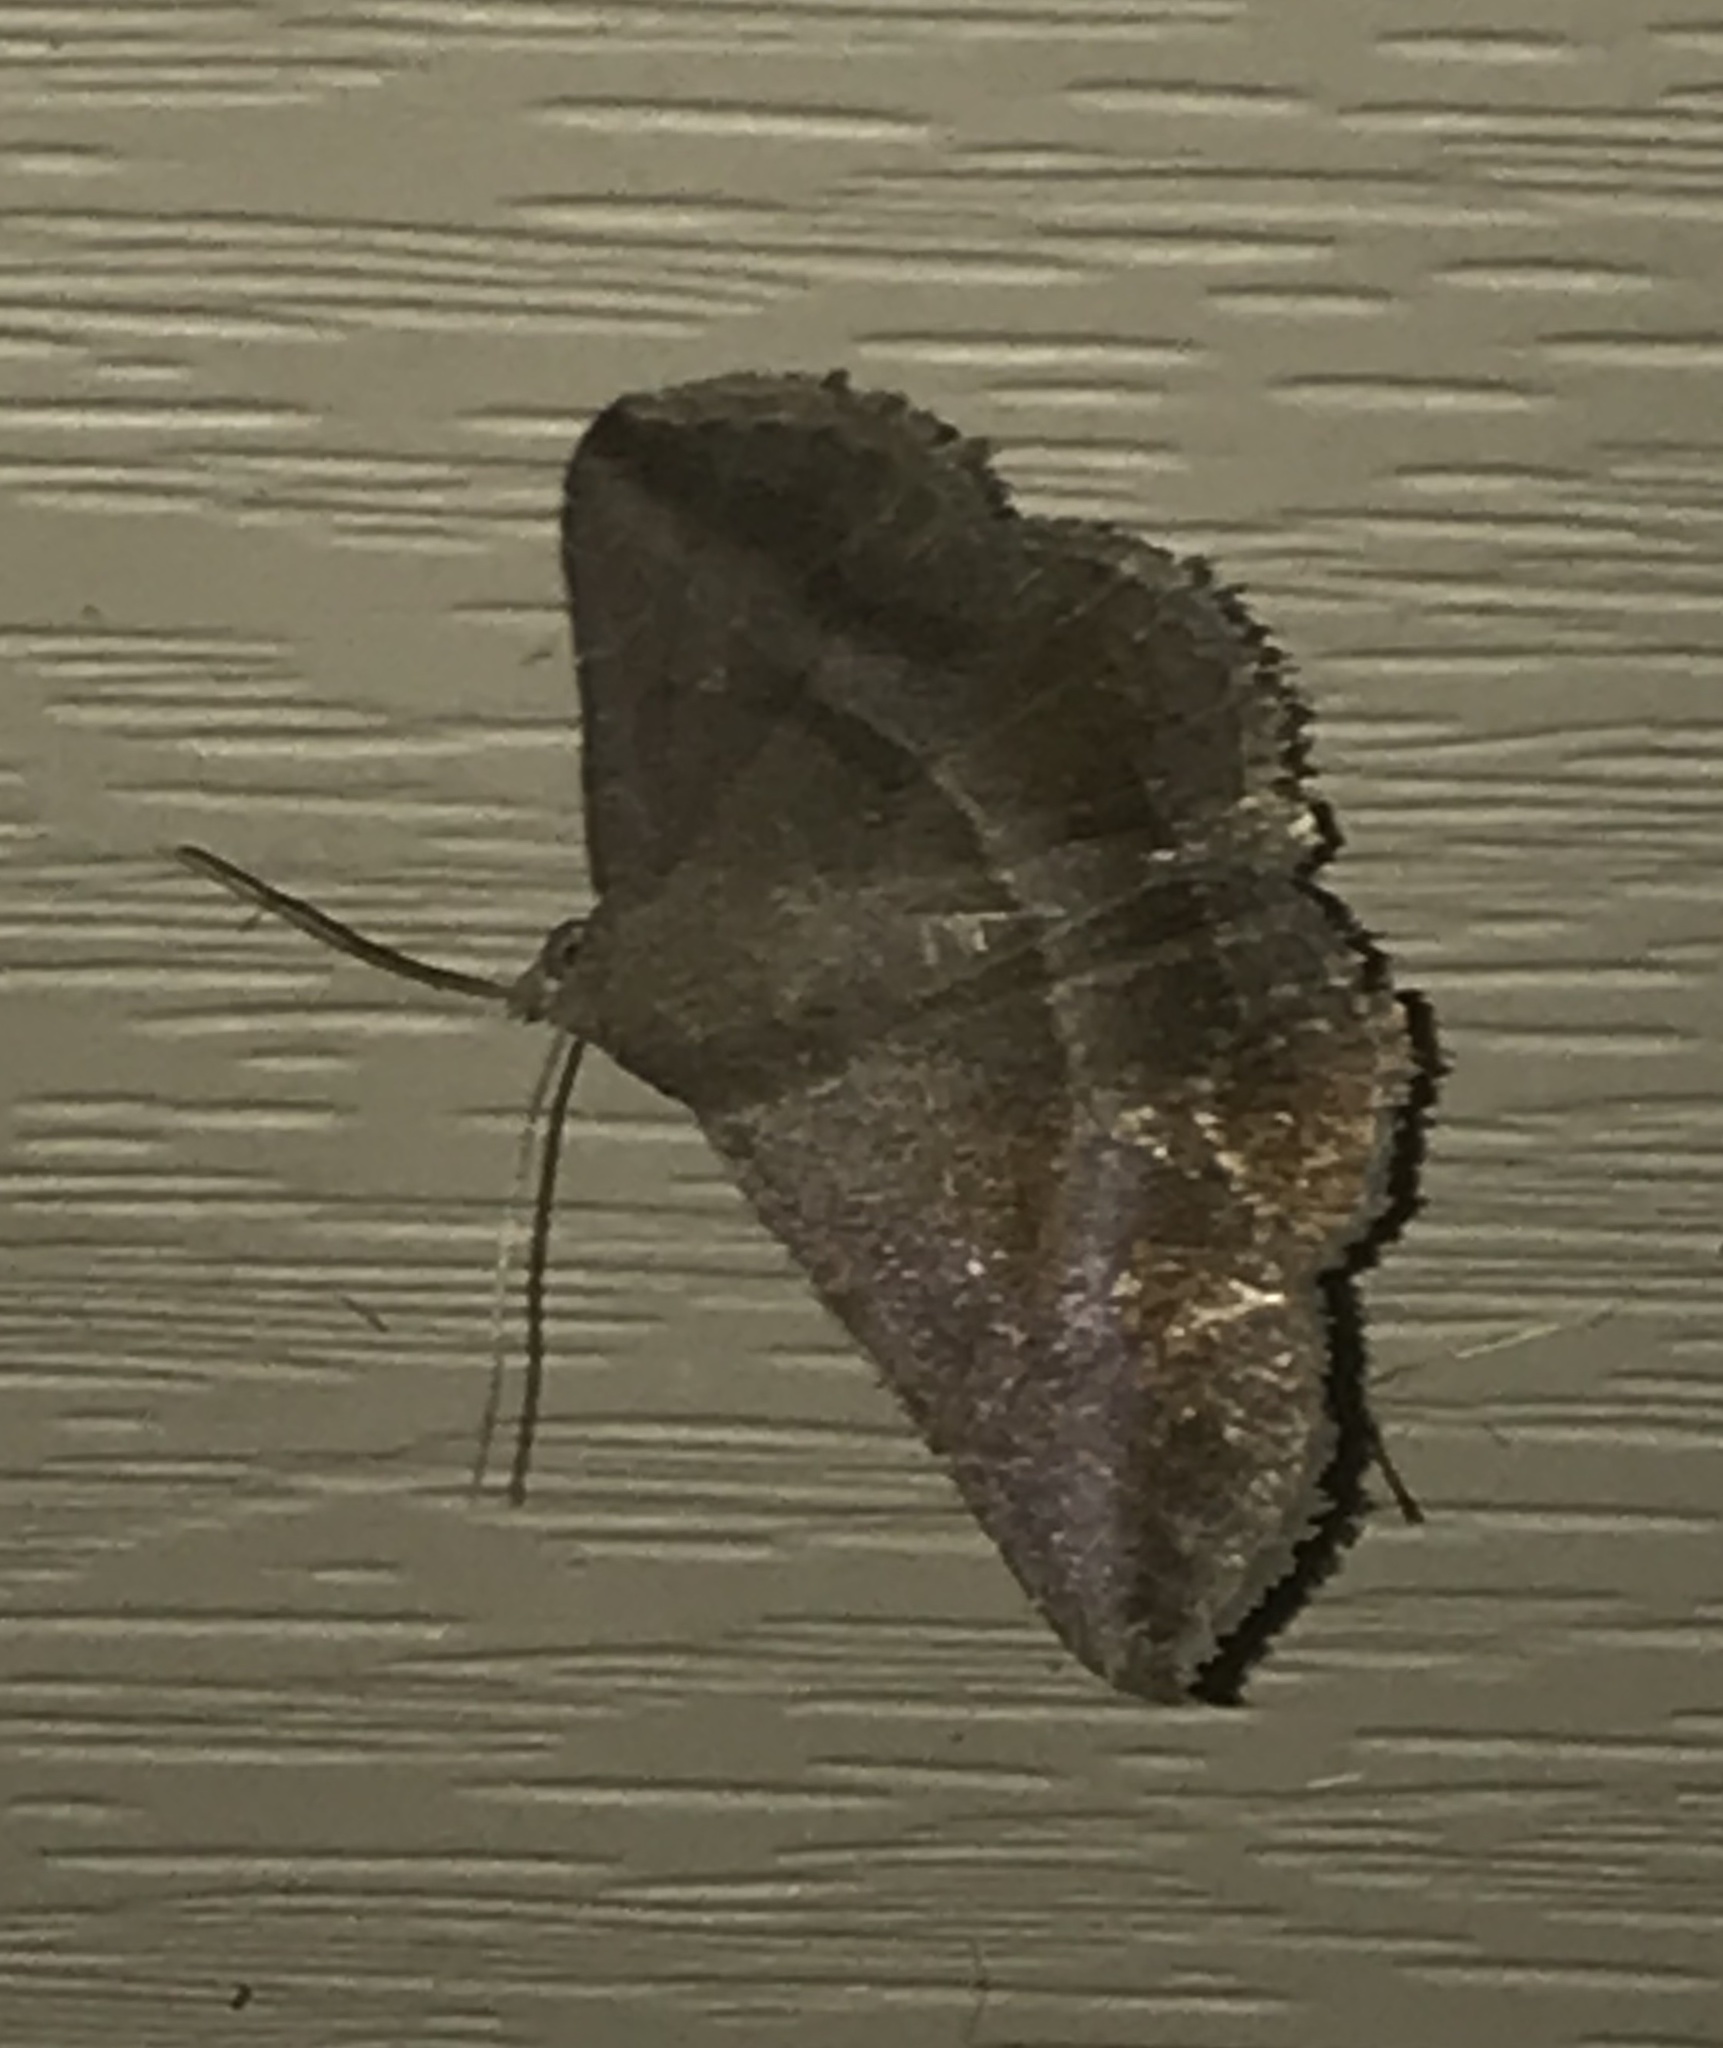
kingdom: Animalia
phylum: Arthropoda
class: Insecta
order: Lepidoptera
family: Erebidae
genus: Lesmone
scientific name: Lesmone detrahens
